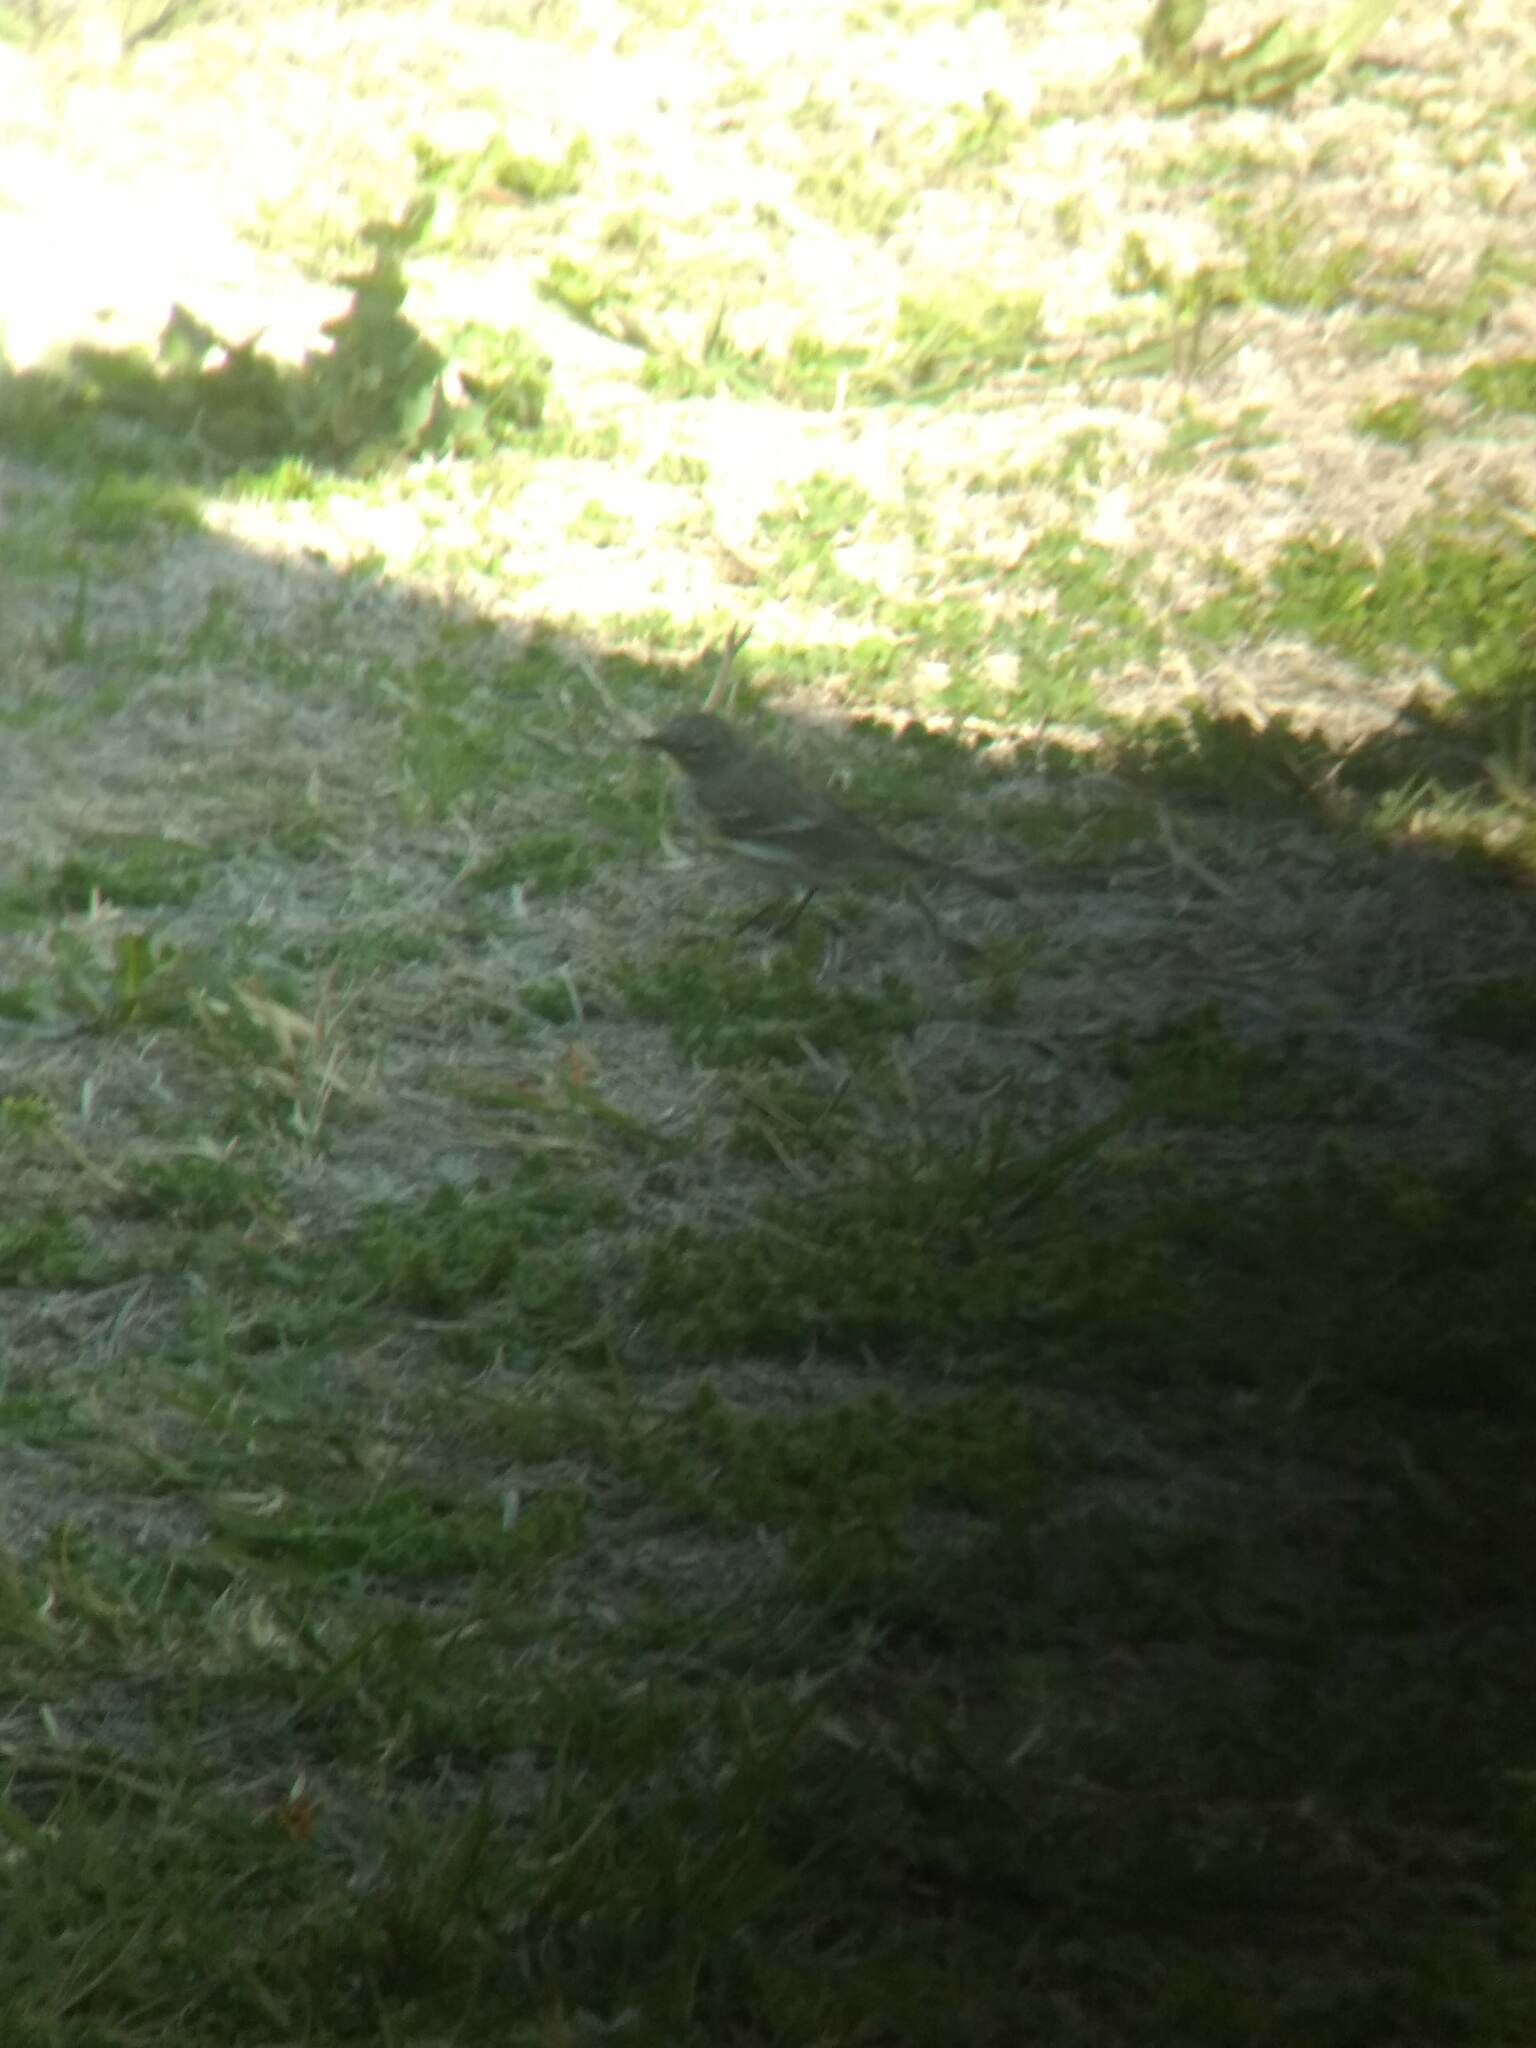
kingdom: Animalia
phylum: Chordata
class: Aves
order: Passeriformes
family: Parulidae
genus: Setophaga
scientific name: Setophaga coronata
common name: Myrtle warbler
